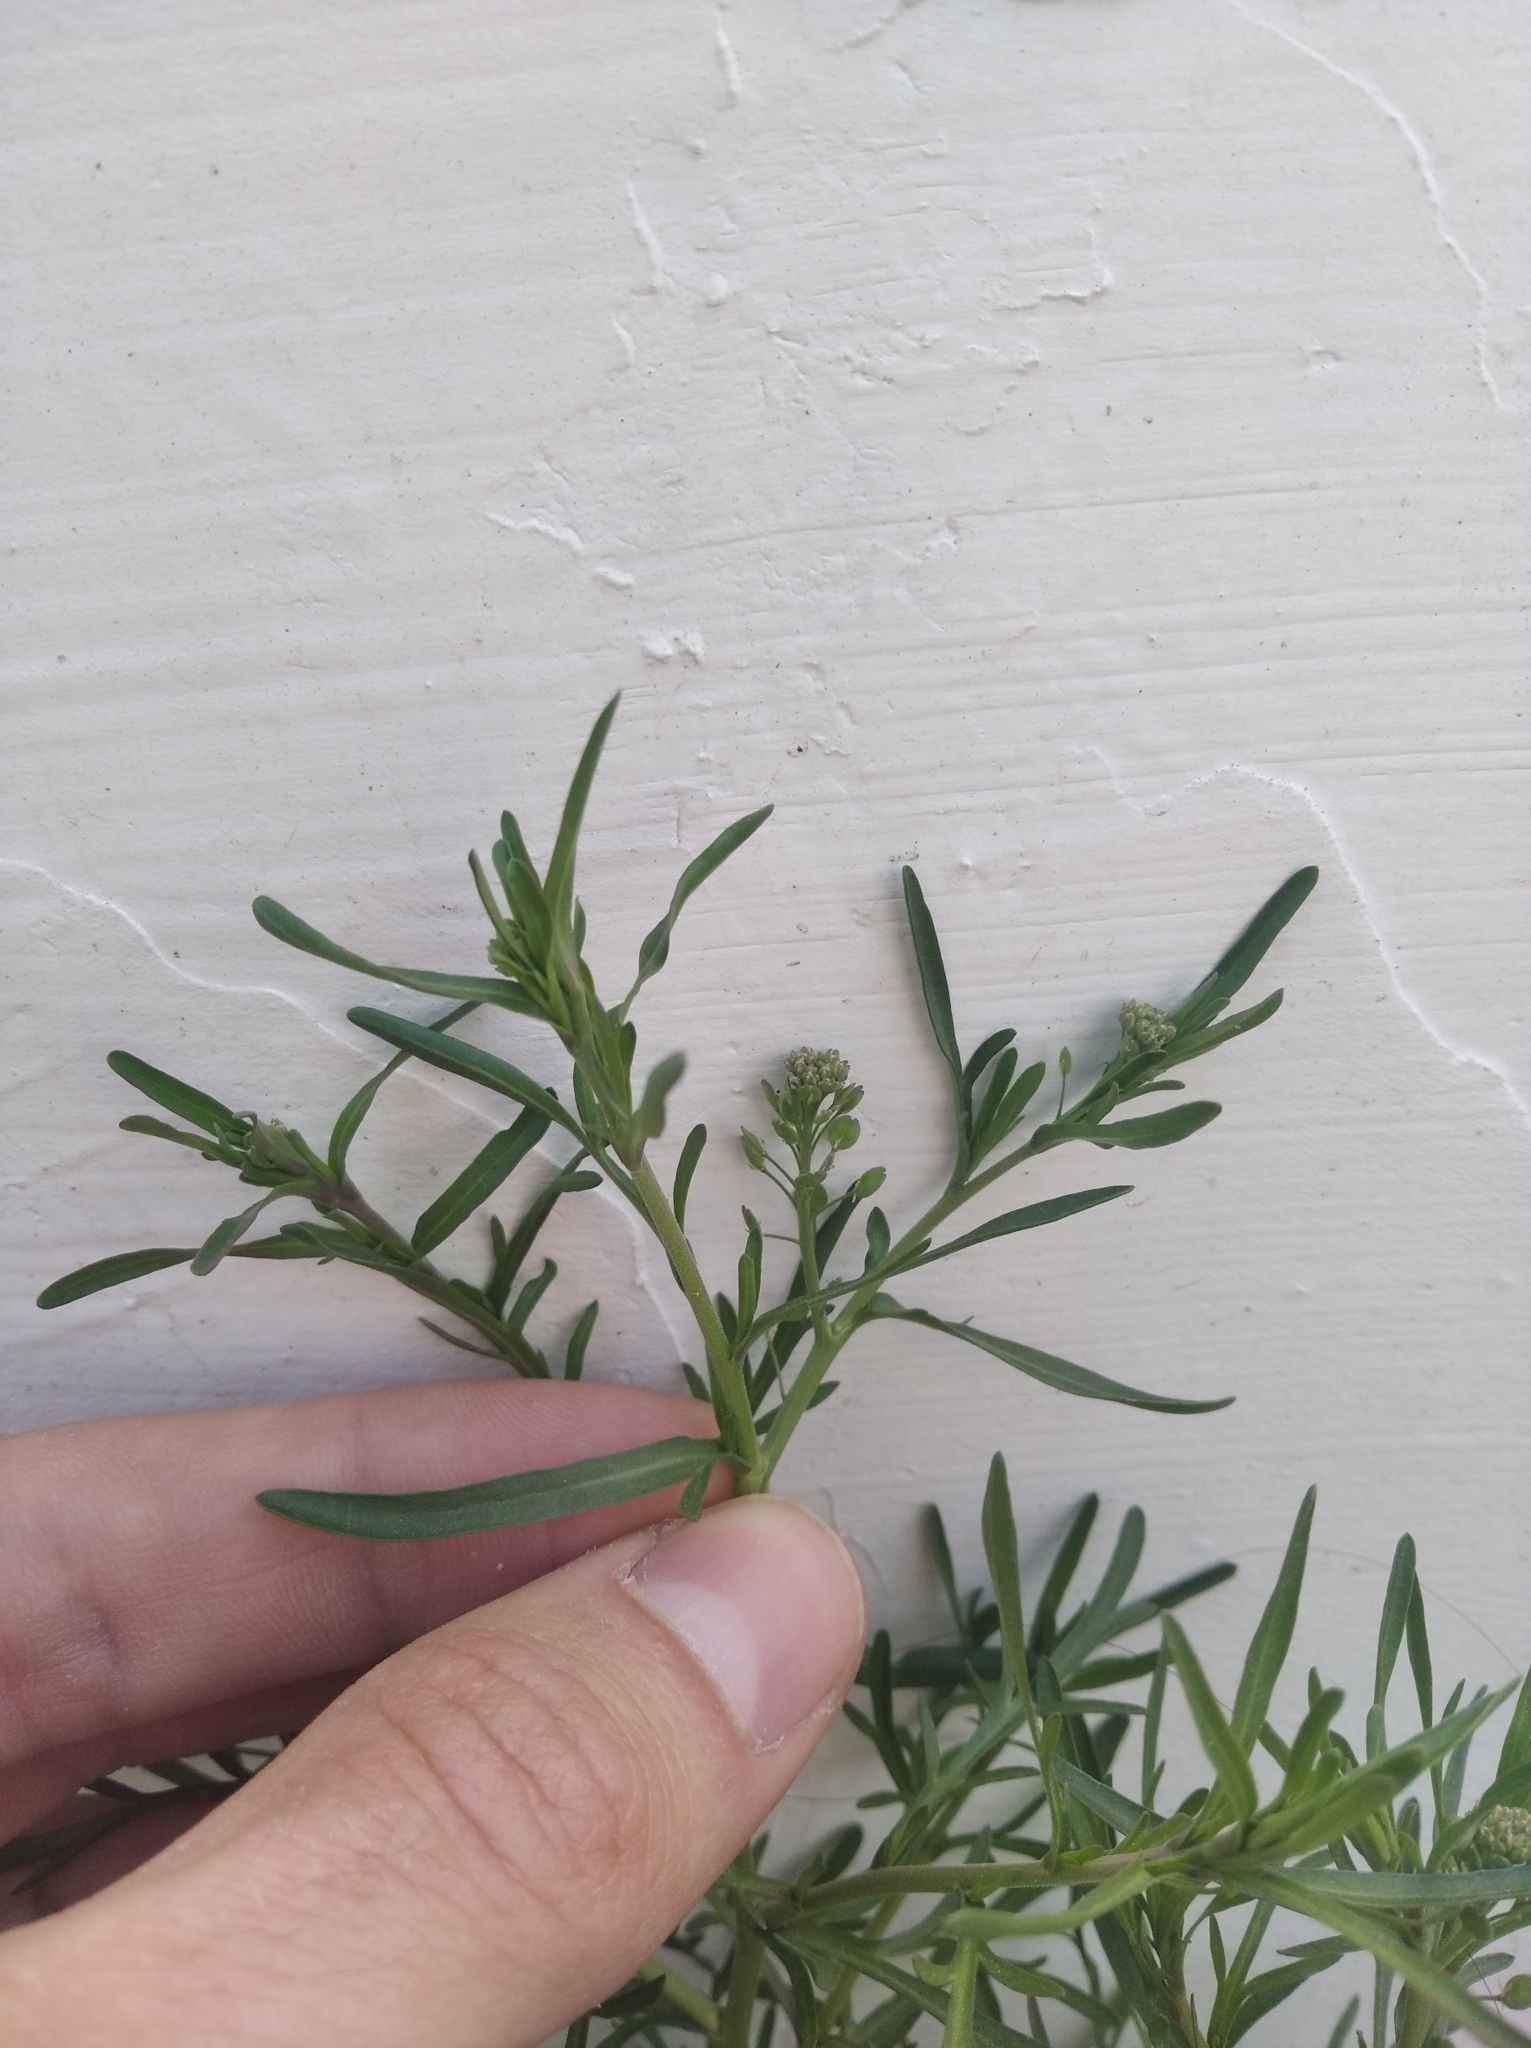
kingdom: Plantae
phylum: Tracheophyta
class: Magnoliopsida
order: Brassicales
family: Brassicaceae
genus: Lepidium
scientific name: Lepidium ruderale
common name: Narrow-leaved pepperwort
